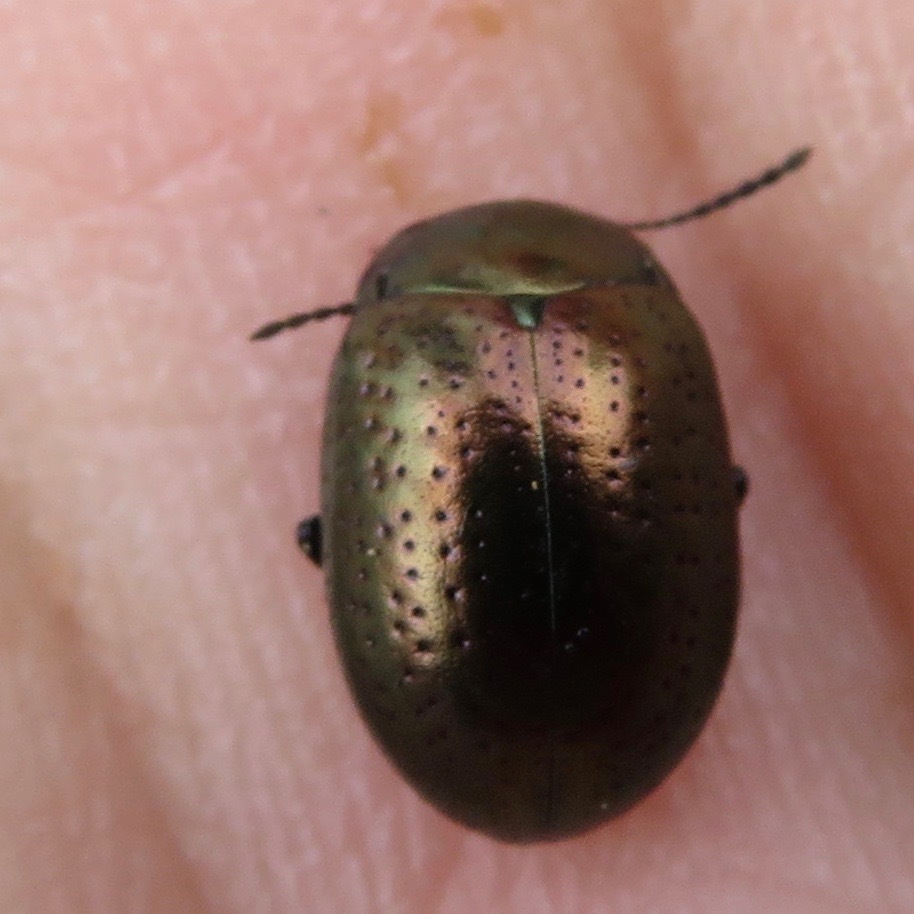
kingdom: Animalia
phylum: Arthropoda
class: Insecta
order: Coleoptera
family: Chrysomelidae
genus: Chrysolina
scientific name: Chrysolina hyperici
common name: St. johnswort beetle
